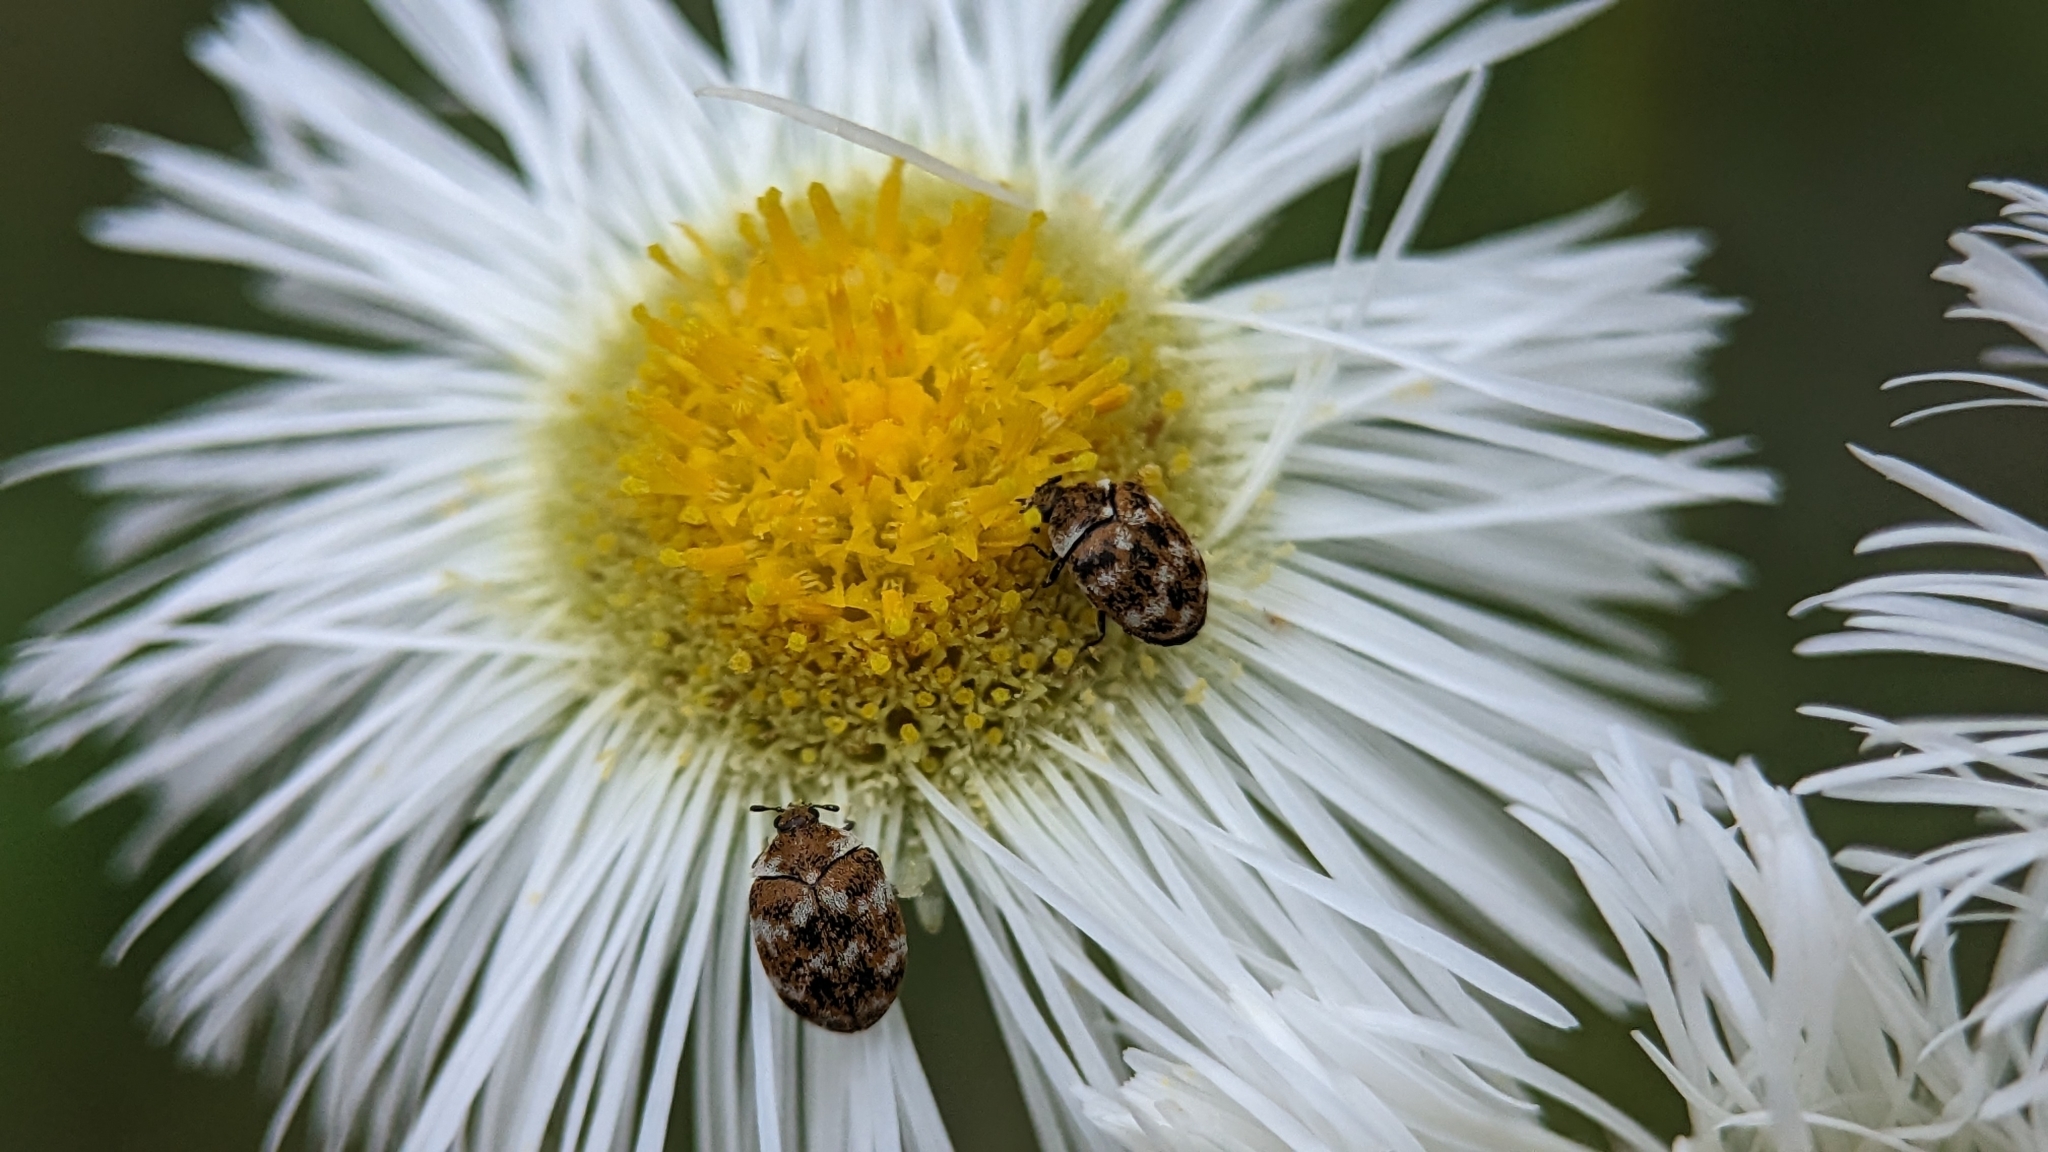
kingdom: Animalia
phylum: Arthropoda
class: Insecta
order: Coleoptera
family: Dermestidae
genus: Anthrenus
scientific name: Anthrenus verbasci
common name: Varied carpet beetle
